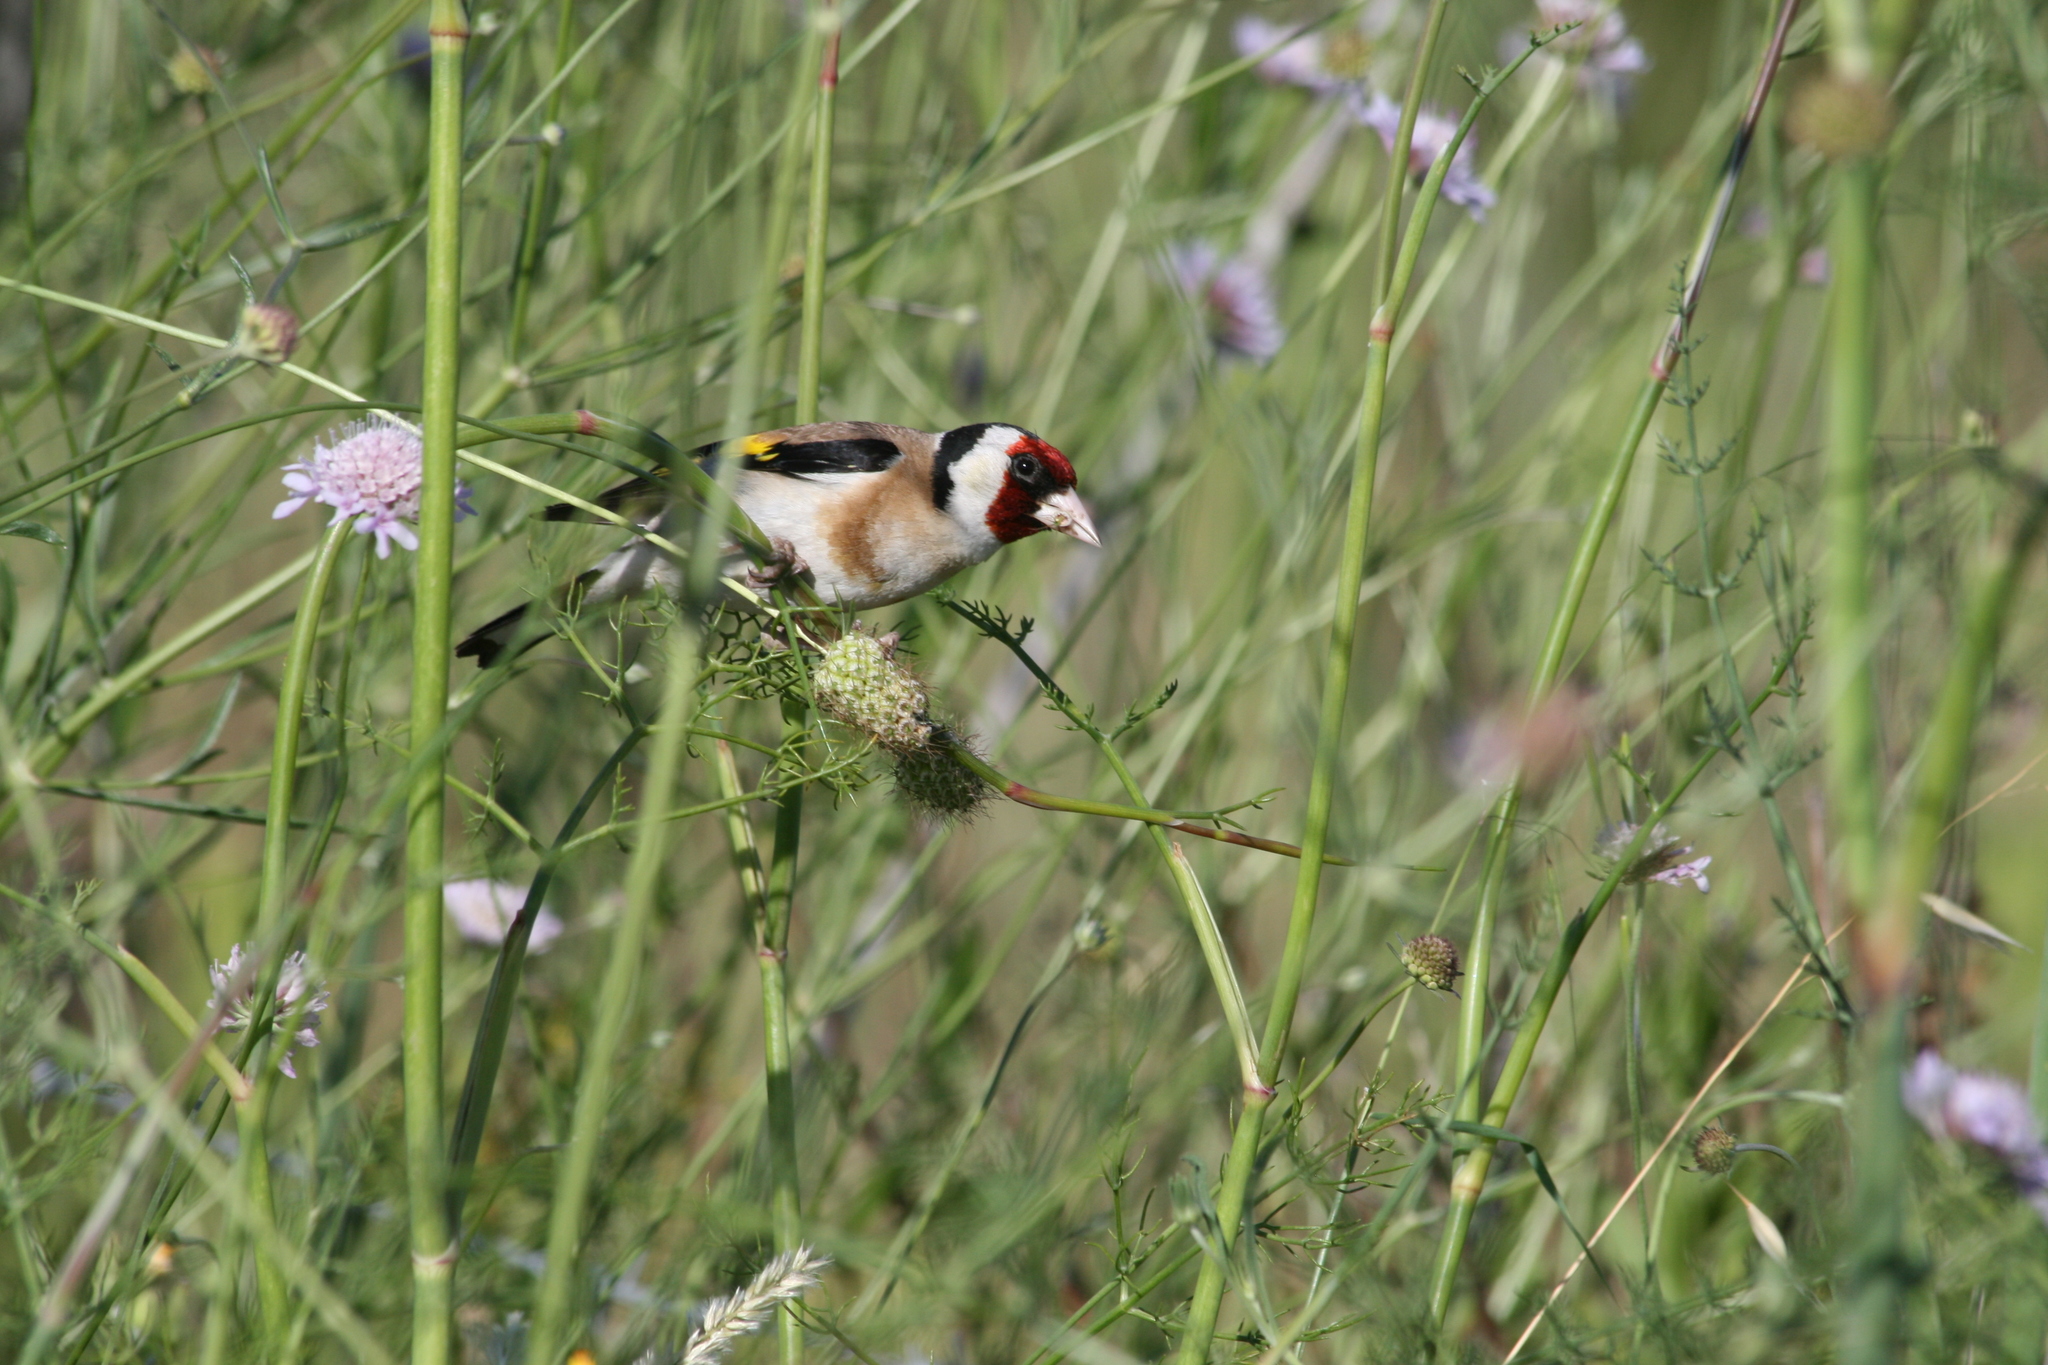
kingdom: Animalia
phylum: Chordata
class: Aves
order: Passeriformes
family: Fringillidae
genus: Carduelis
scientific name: Carduelis carduelis
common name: European goldfinch
